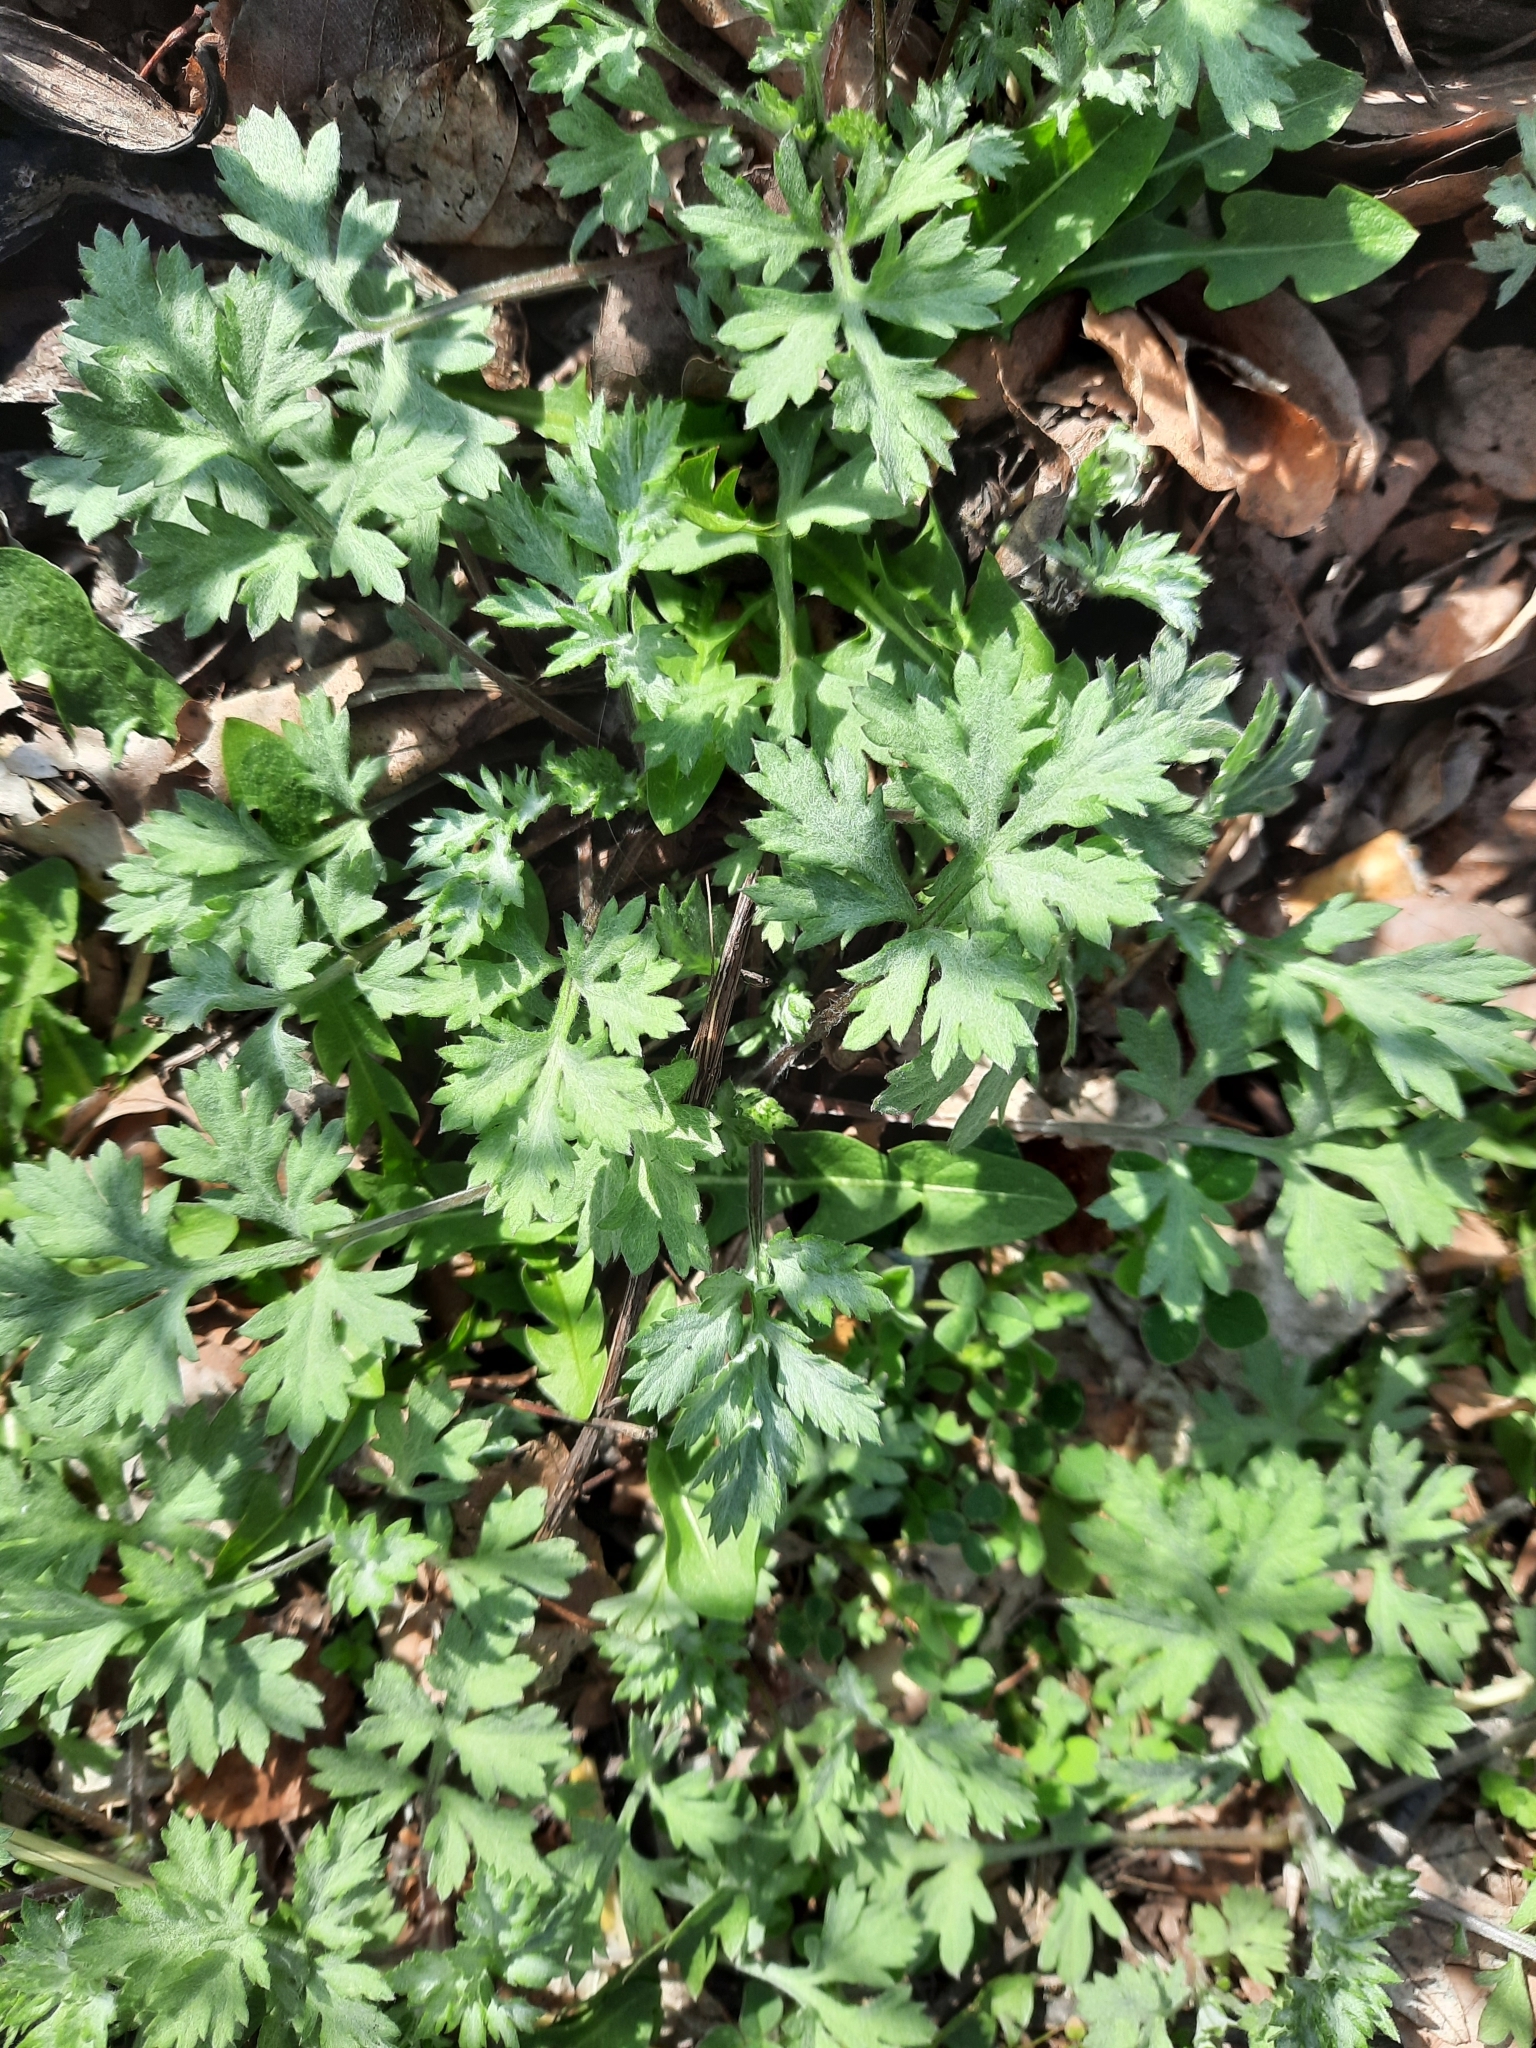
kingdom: Plantae
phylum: Tracheophyta
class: Magnoliopsida
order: Asterales
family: Asteraceae
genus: Artemisia
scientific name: Artemisia vulgaris
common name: Mugwort
